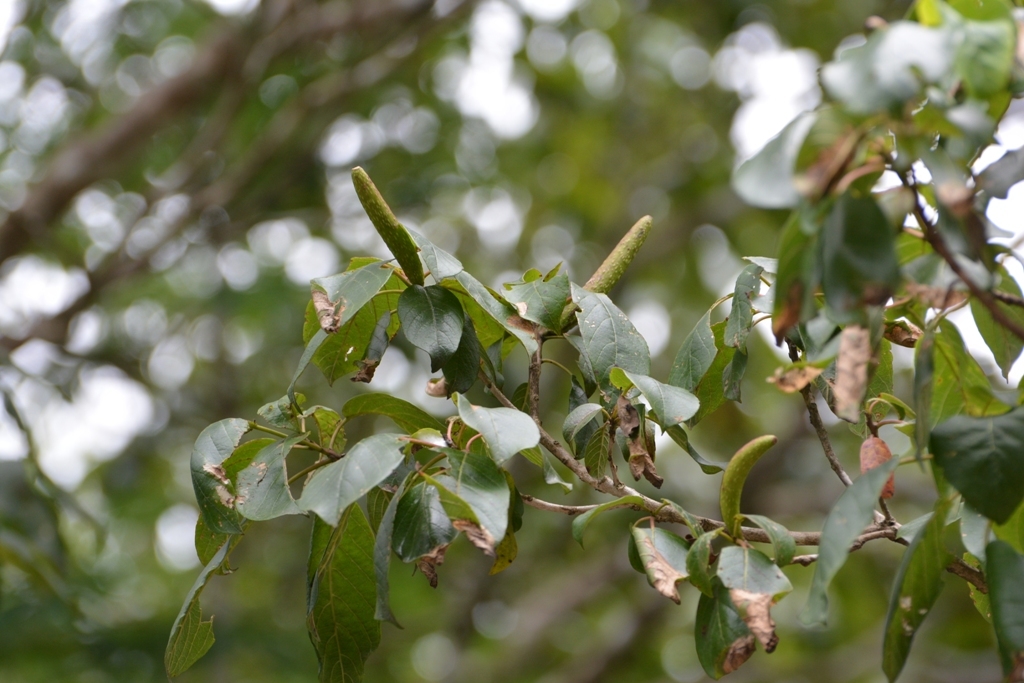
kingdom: Plantae
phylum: Tracheophyta
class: Magnoliopsida
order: Myrtales
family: Onagraceae
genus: Hauya
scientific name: Hauya elegans
